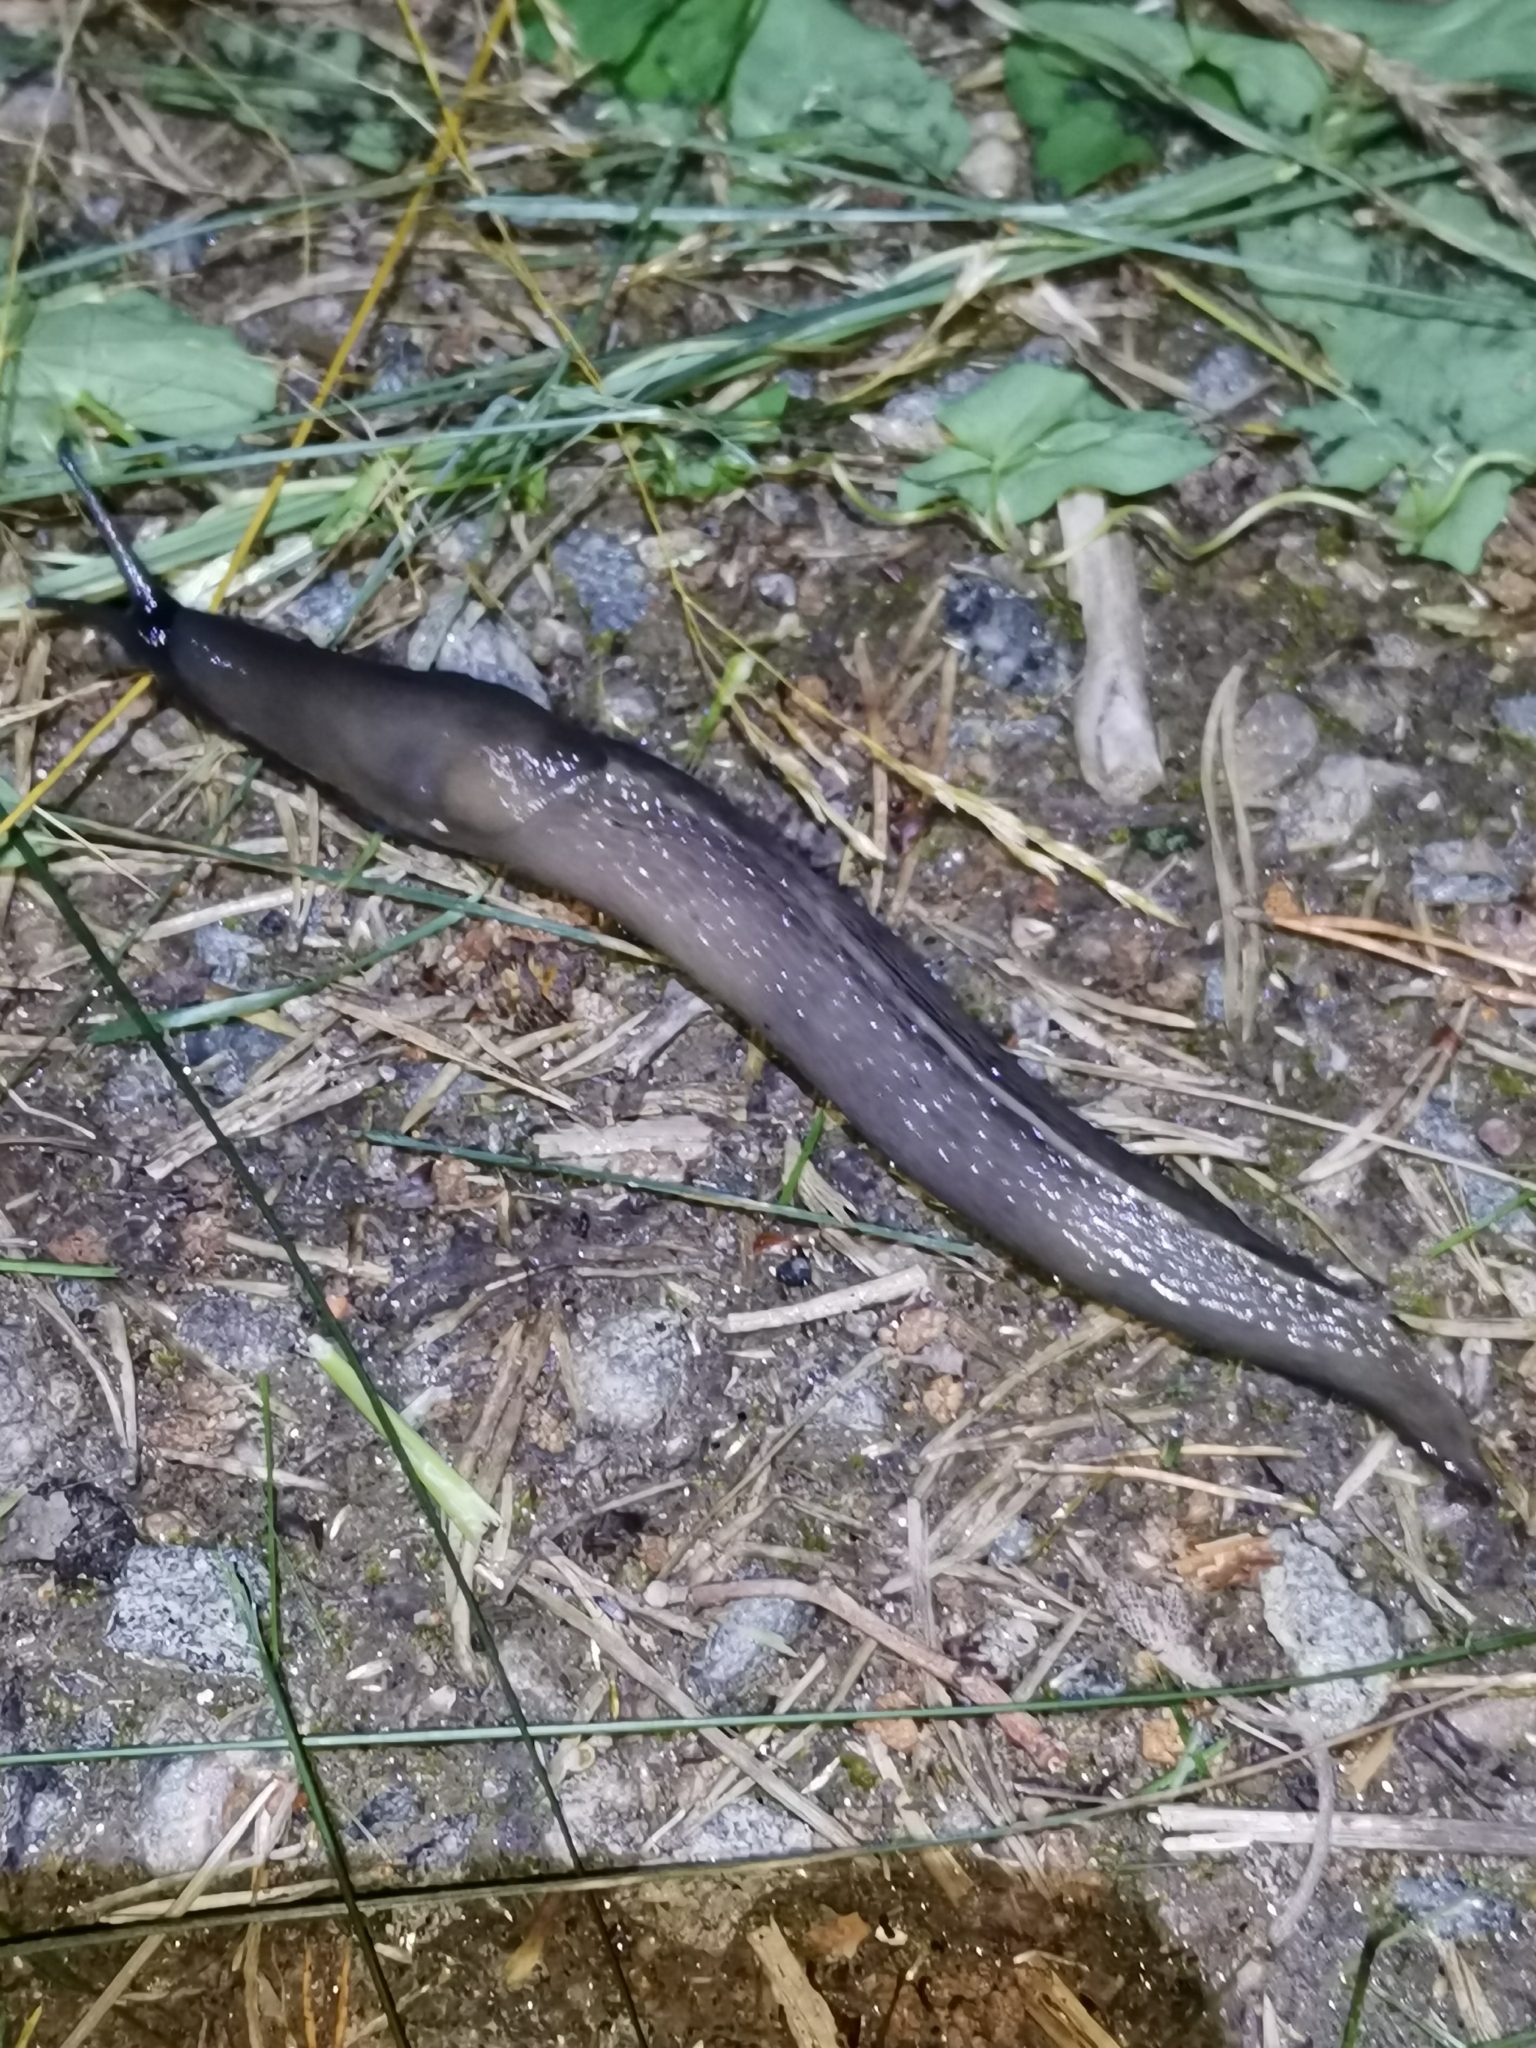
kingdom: Animalia
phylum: Mollusca
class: Gastropoda
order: Stylommatophora
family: Limacidae
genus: Limax
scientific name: Limax cinereoniger
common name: Ash-black slug
